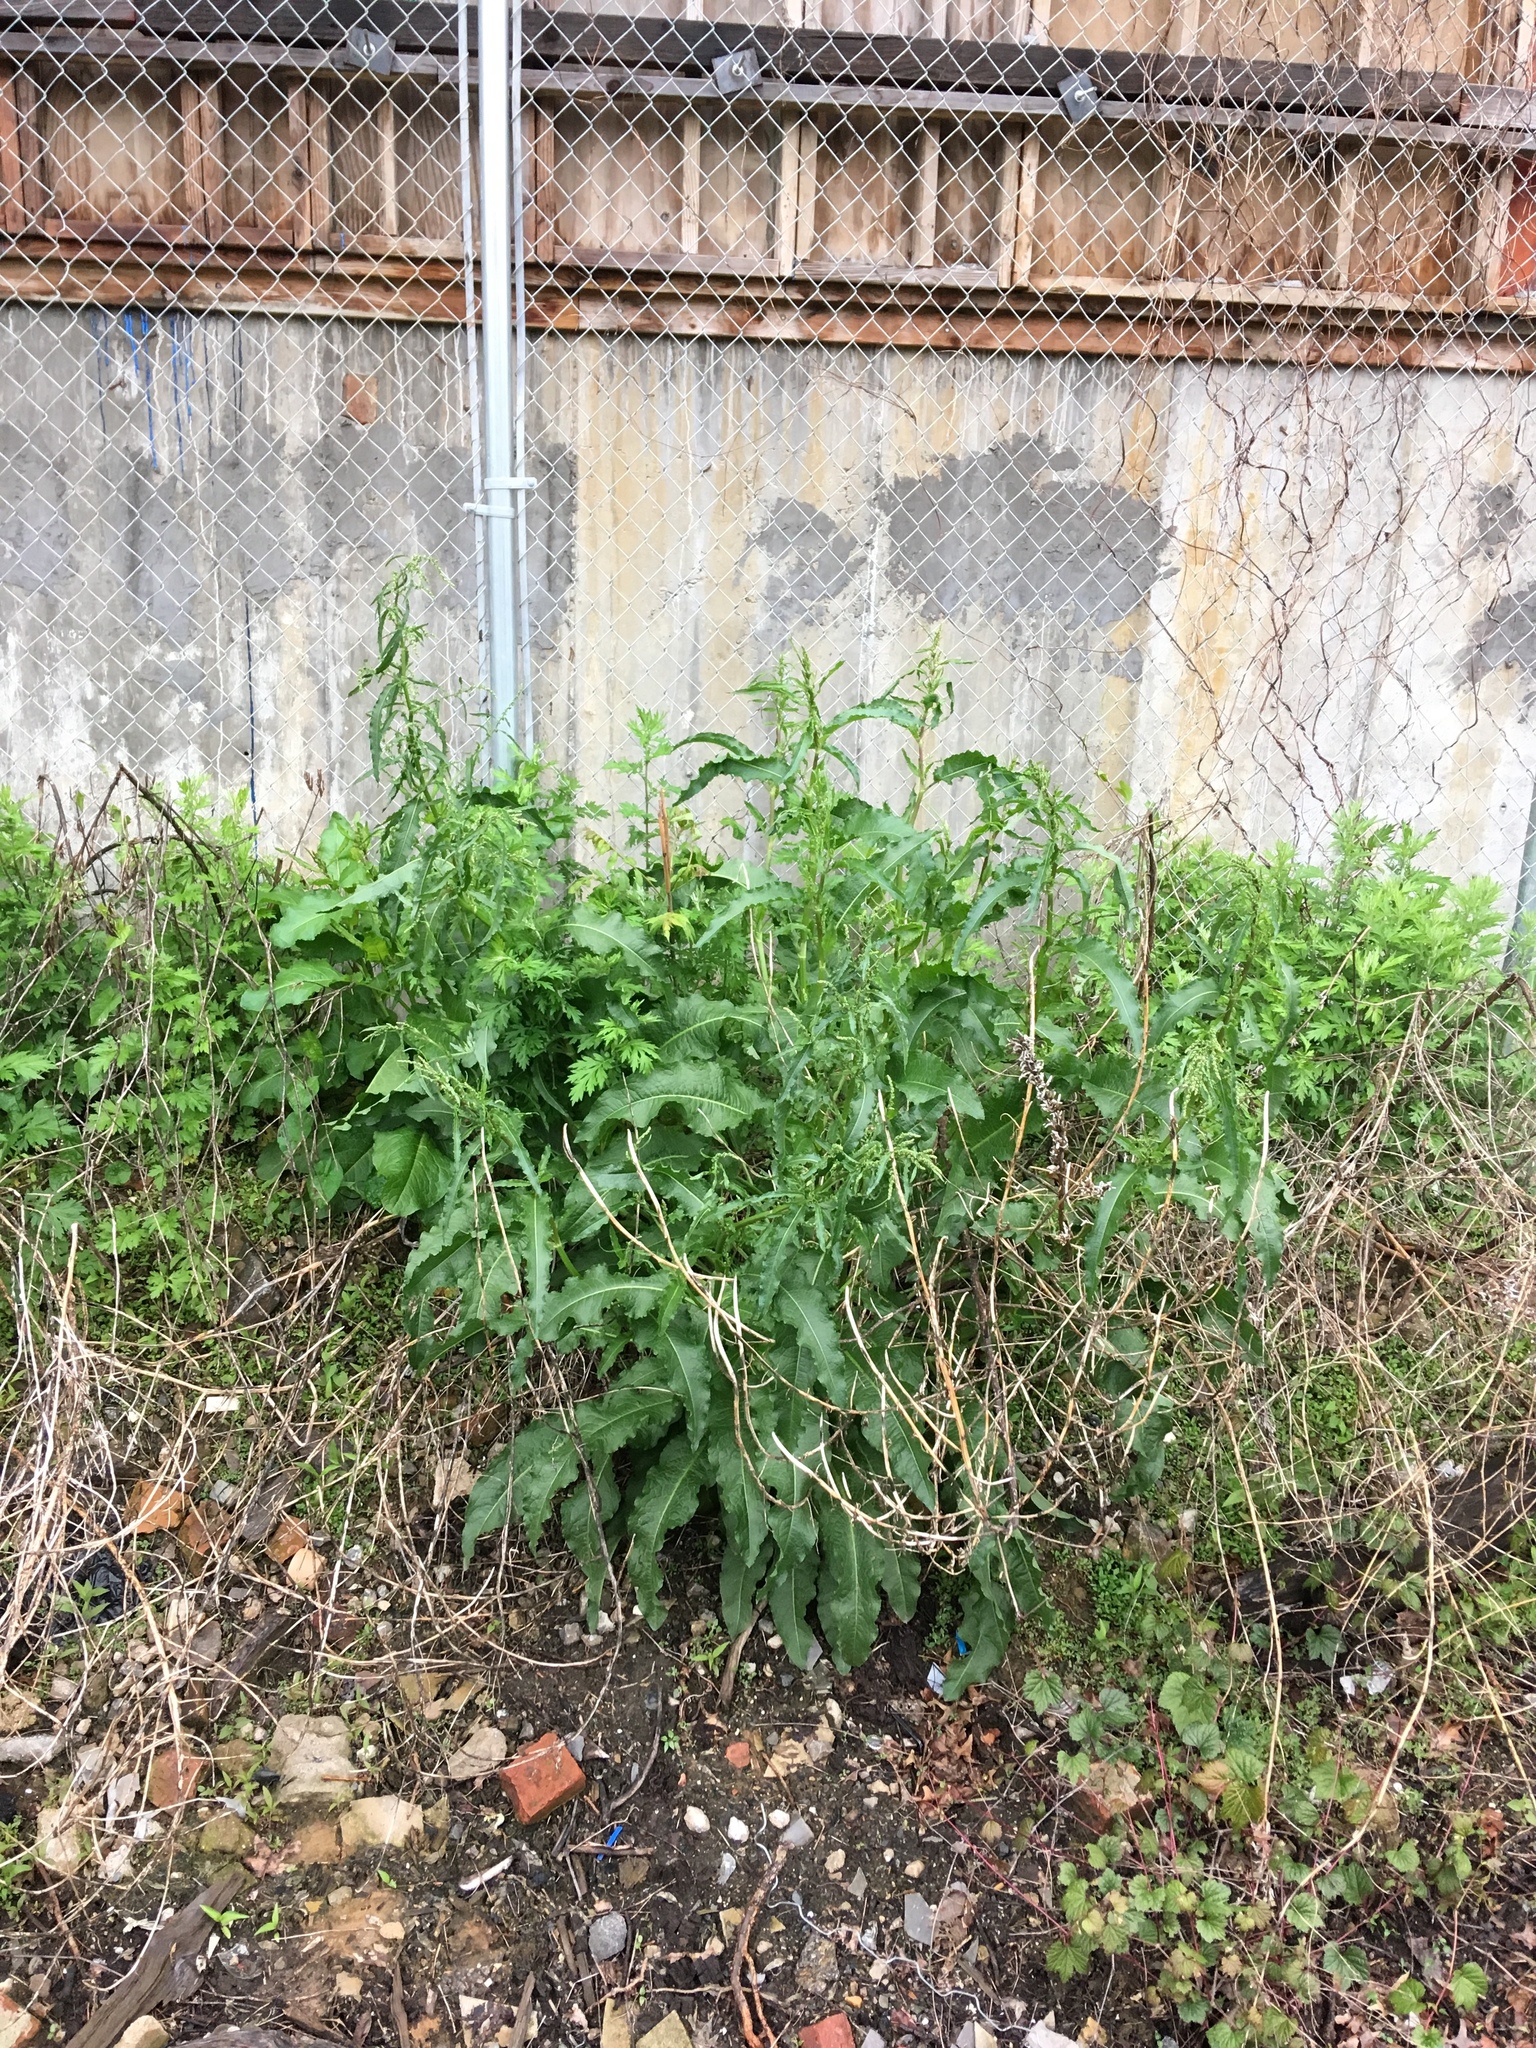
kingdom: Plantae
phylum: Tracheophyta
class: Magnoliopsida
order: Caryophyllales
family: Polygonaceae
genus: Rumex
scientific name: Rumex crispus
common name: Curled dock
